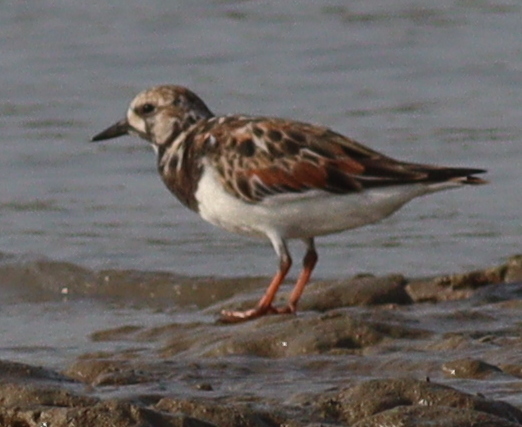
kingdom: Animalia
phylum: Chordata
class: Aves
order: Charadriiformes
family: Scolopacidae
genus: Arenaria
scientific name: Arenaria interpres
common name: Ruddy turnstone
